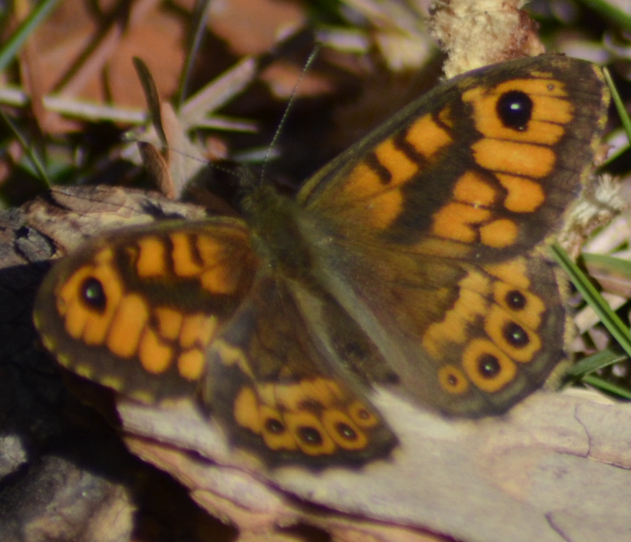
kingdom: Animalia
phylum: Arthropoda
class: Insecta
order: Lepidoptera
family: Nymphalidae
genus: Pararge
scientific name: Pararge Lasiommata megera
